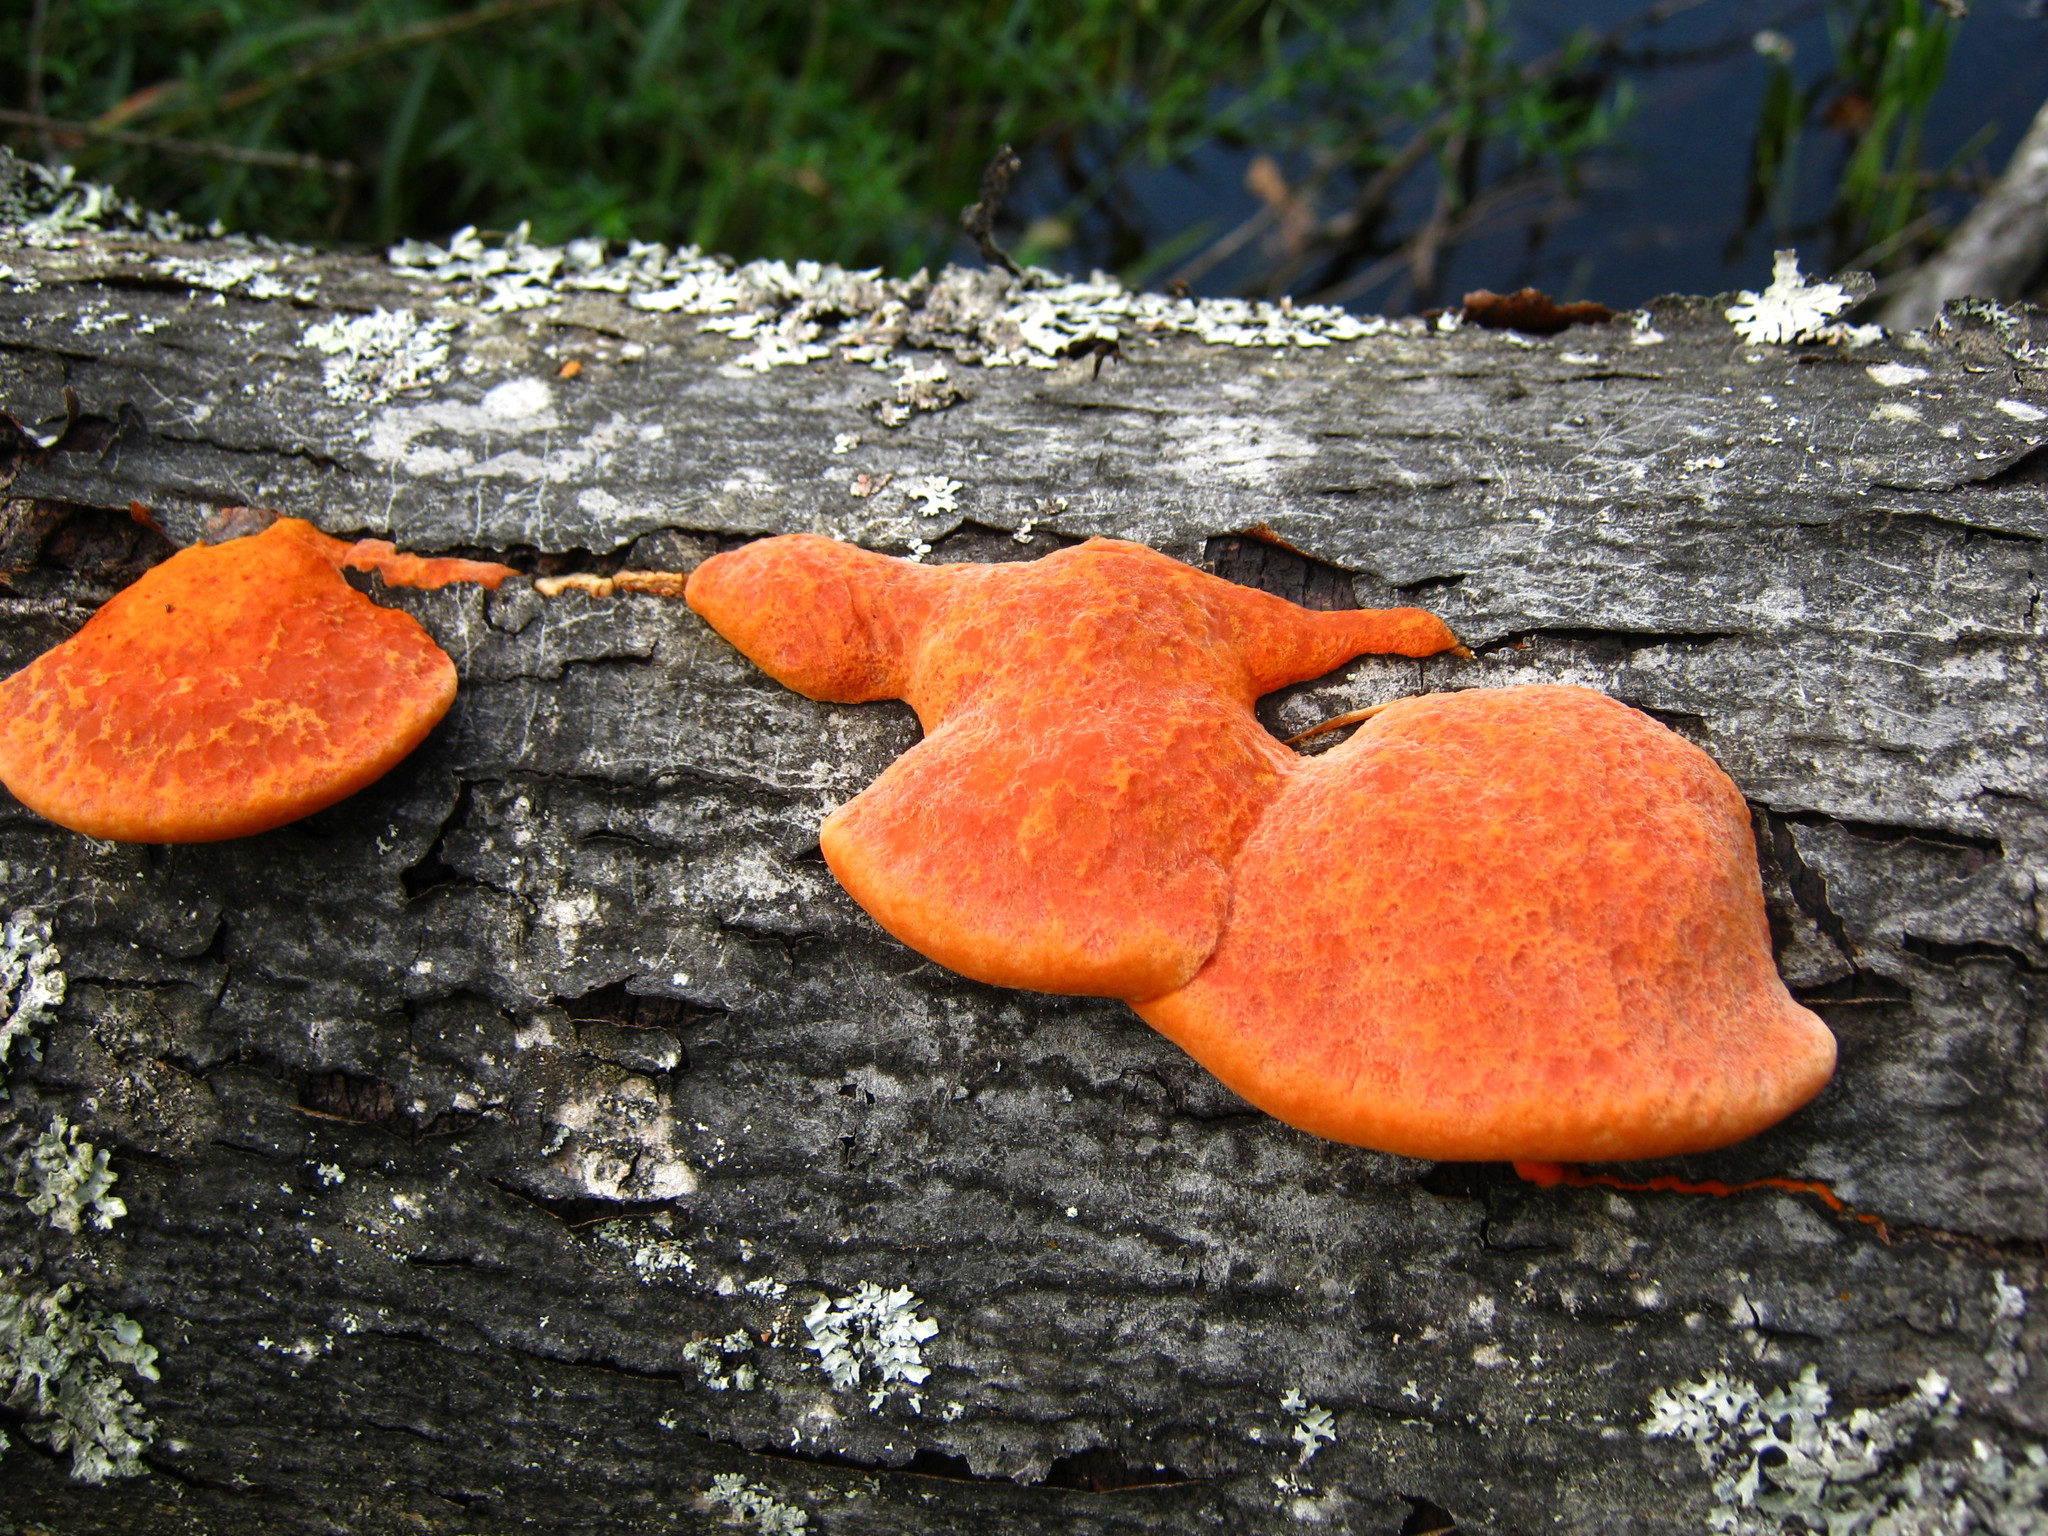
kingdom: Fungi
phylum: Basidiomycota
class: Agaricomycetes
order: Polyporales
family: Polyporaceae
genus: Trametes
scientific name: Trametes cinnabarina
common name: Northern cinnabar polypore
